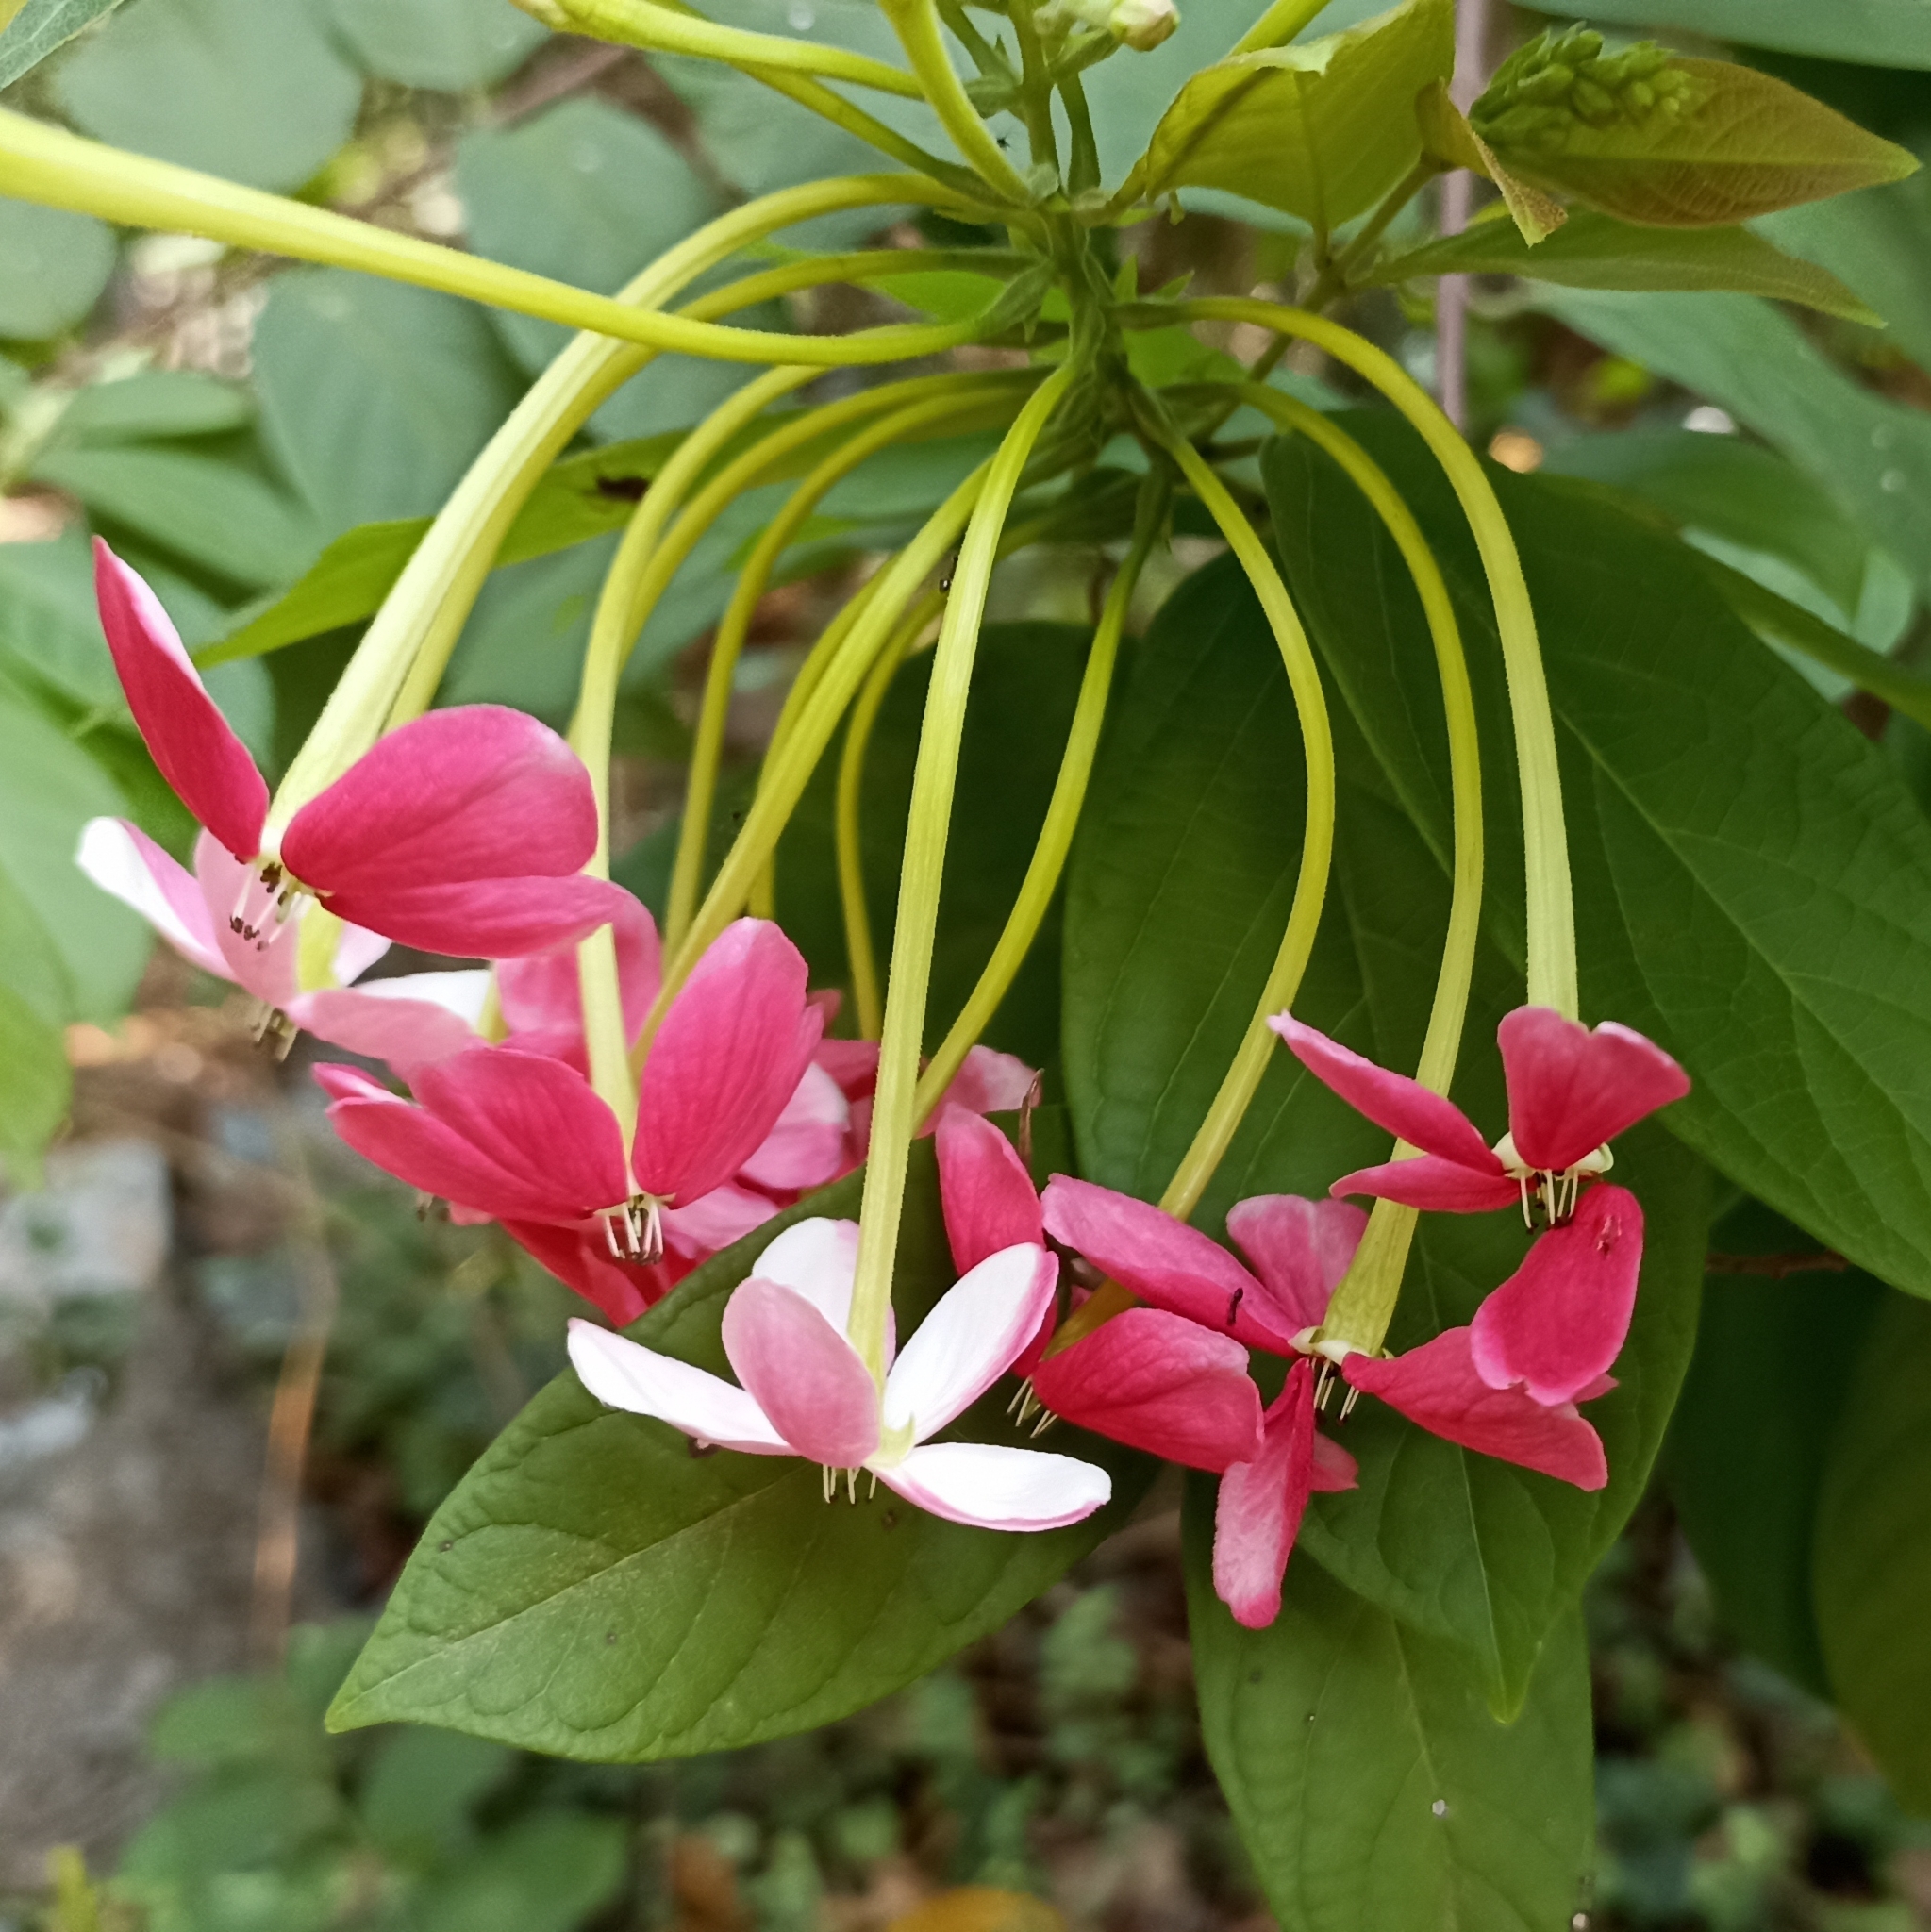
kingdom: Plantae
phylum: Tracheophyta
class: Magnoliopsida
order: Myrtales
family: Combretaceae
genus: Combretum
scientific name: Combretum indicum
